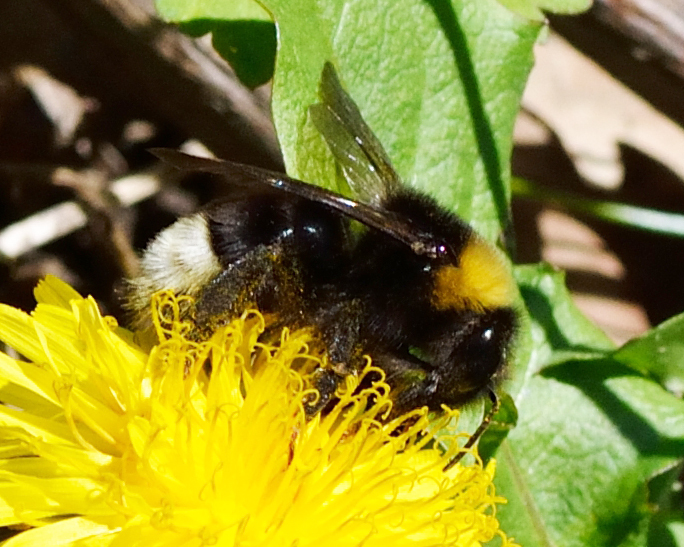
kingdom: Animalia
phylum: Arthropoda
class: Insecta
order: Hymenoptera
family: Apidae
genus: Bombus
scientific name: Bombus bohemicus
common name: Gypsy cuckoo bee
